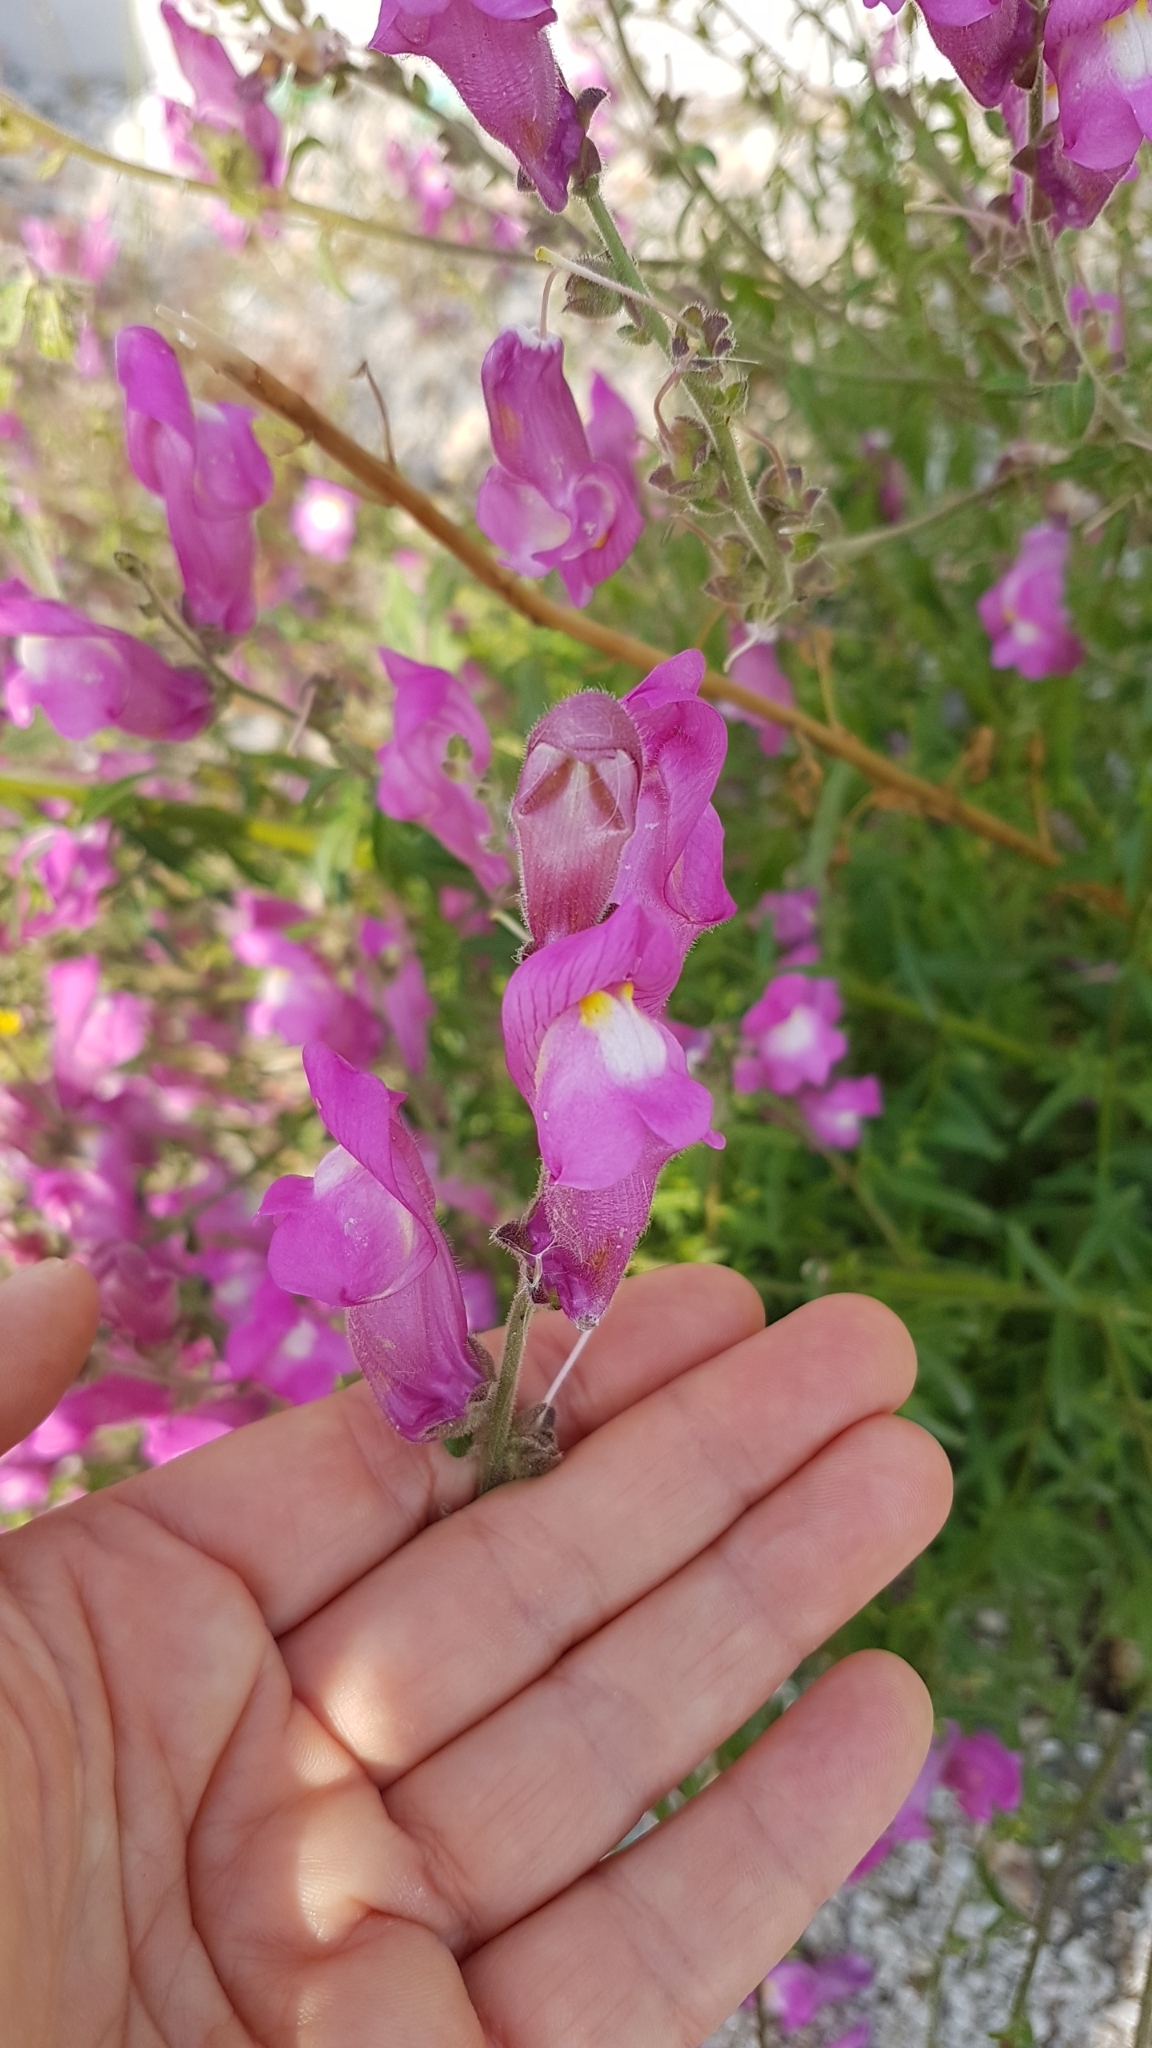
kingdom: Plantae
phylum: Tracheophyta
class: Magnoliopsida
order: Lamiales
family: Plantaginaceae
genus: Antirrhinum
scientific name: Antirrhinum majus
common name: Snapdragon
